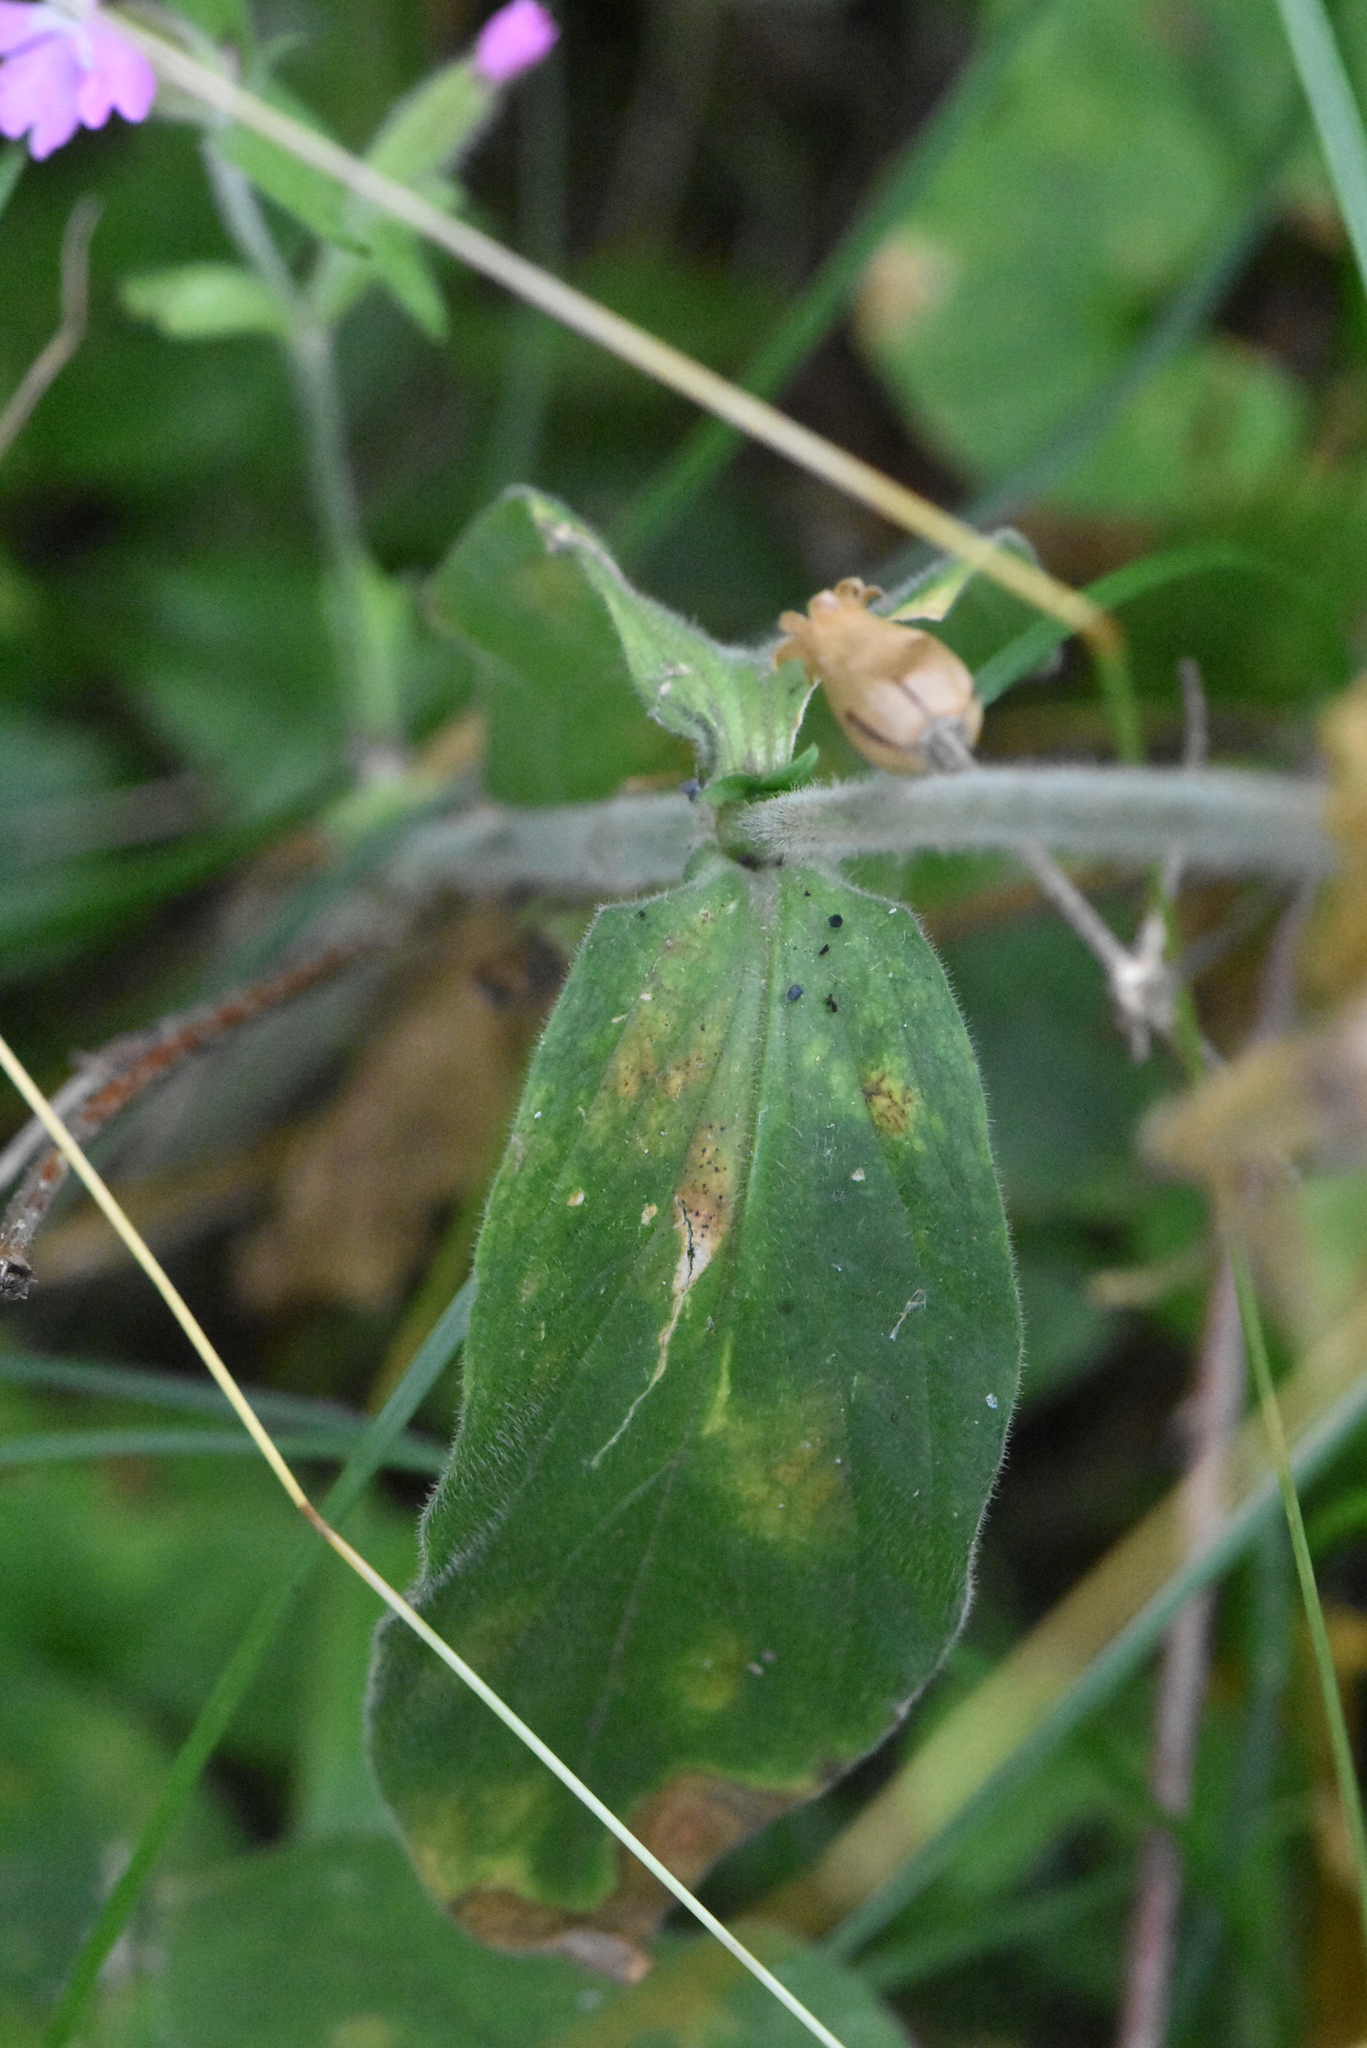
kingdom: Plantae
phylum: Tracheophyta
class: Magnoliopsida
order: Caryophyllales
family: Caryophyllaceae
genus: Silene
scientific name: Silene dioica
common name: Red campion
